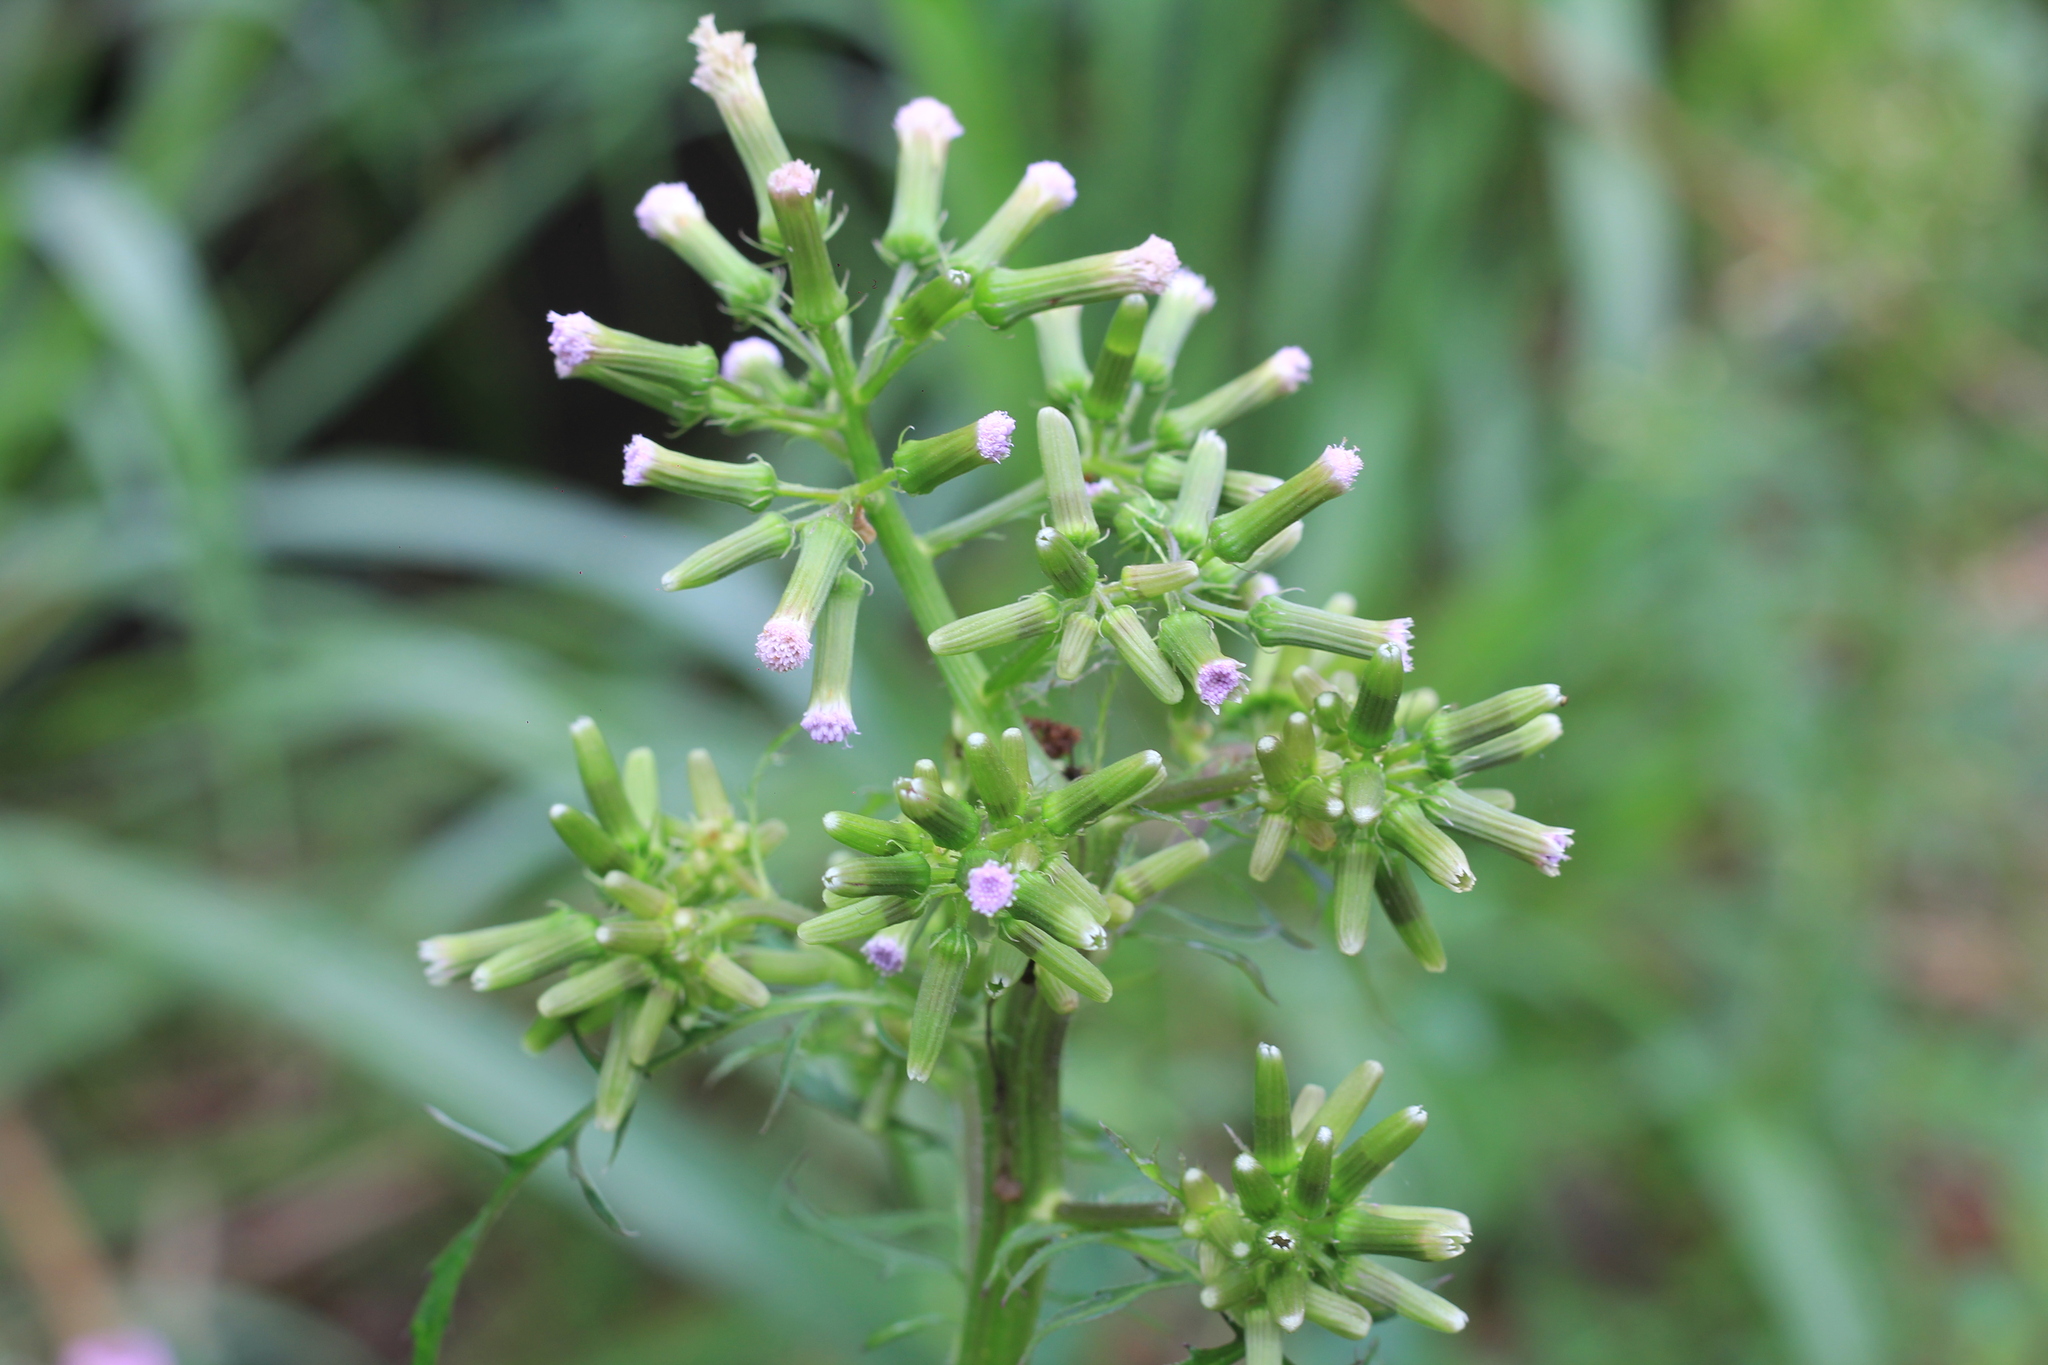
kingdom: Plantae
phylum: Tracheophyta
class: Magnoliopsida
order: Asterales
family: Asteraceae
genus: Erechtites
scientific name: Erechtites valerianifolius
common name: Tropical burnweed
